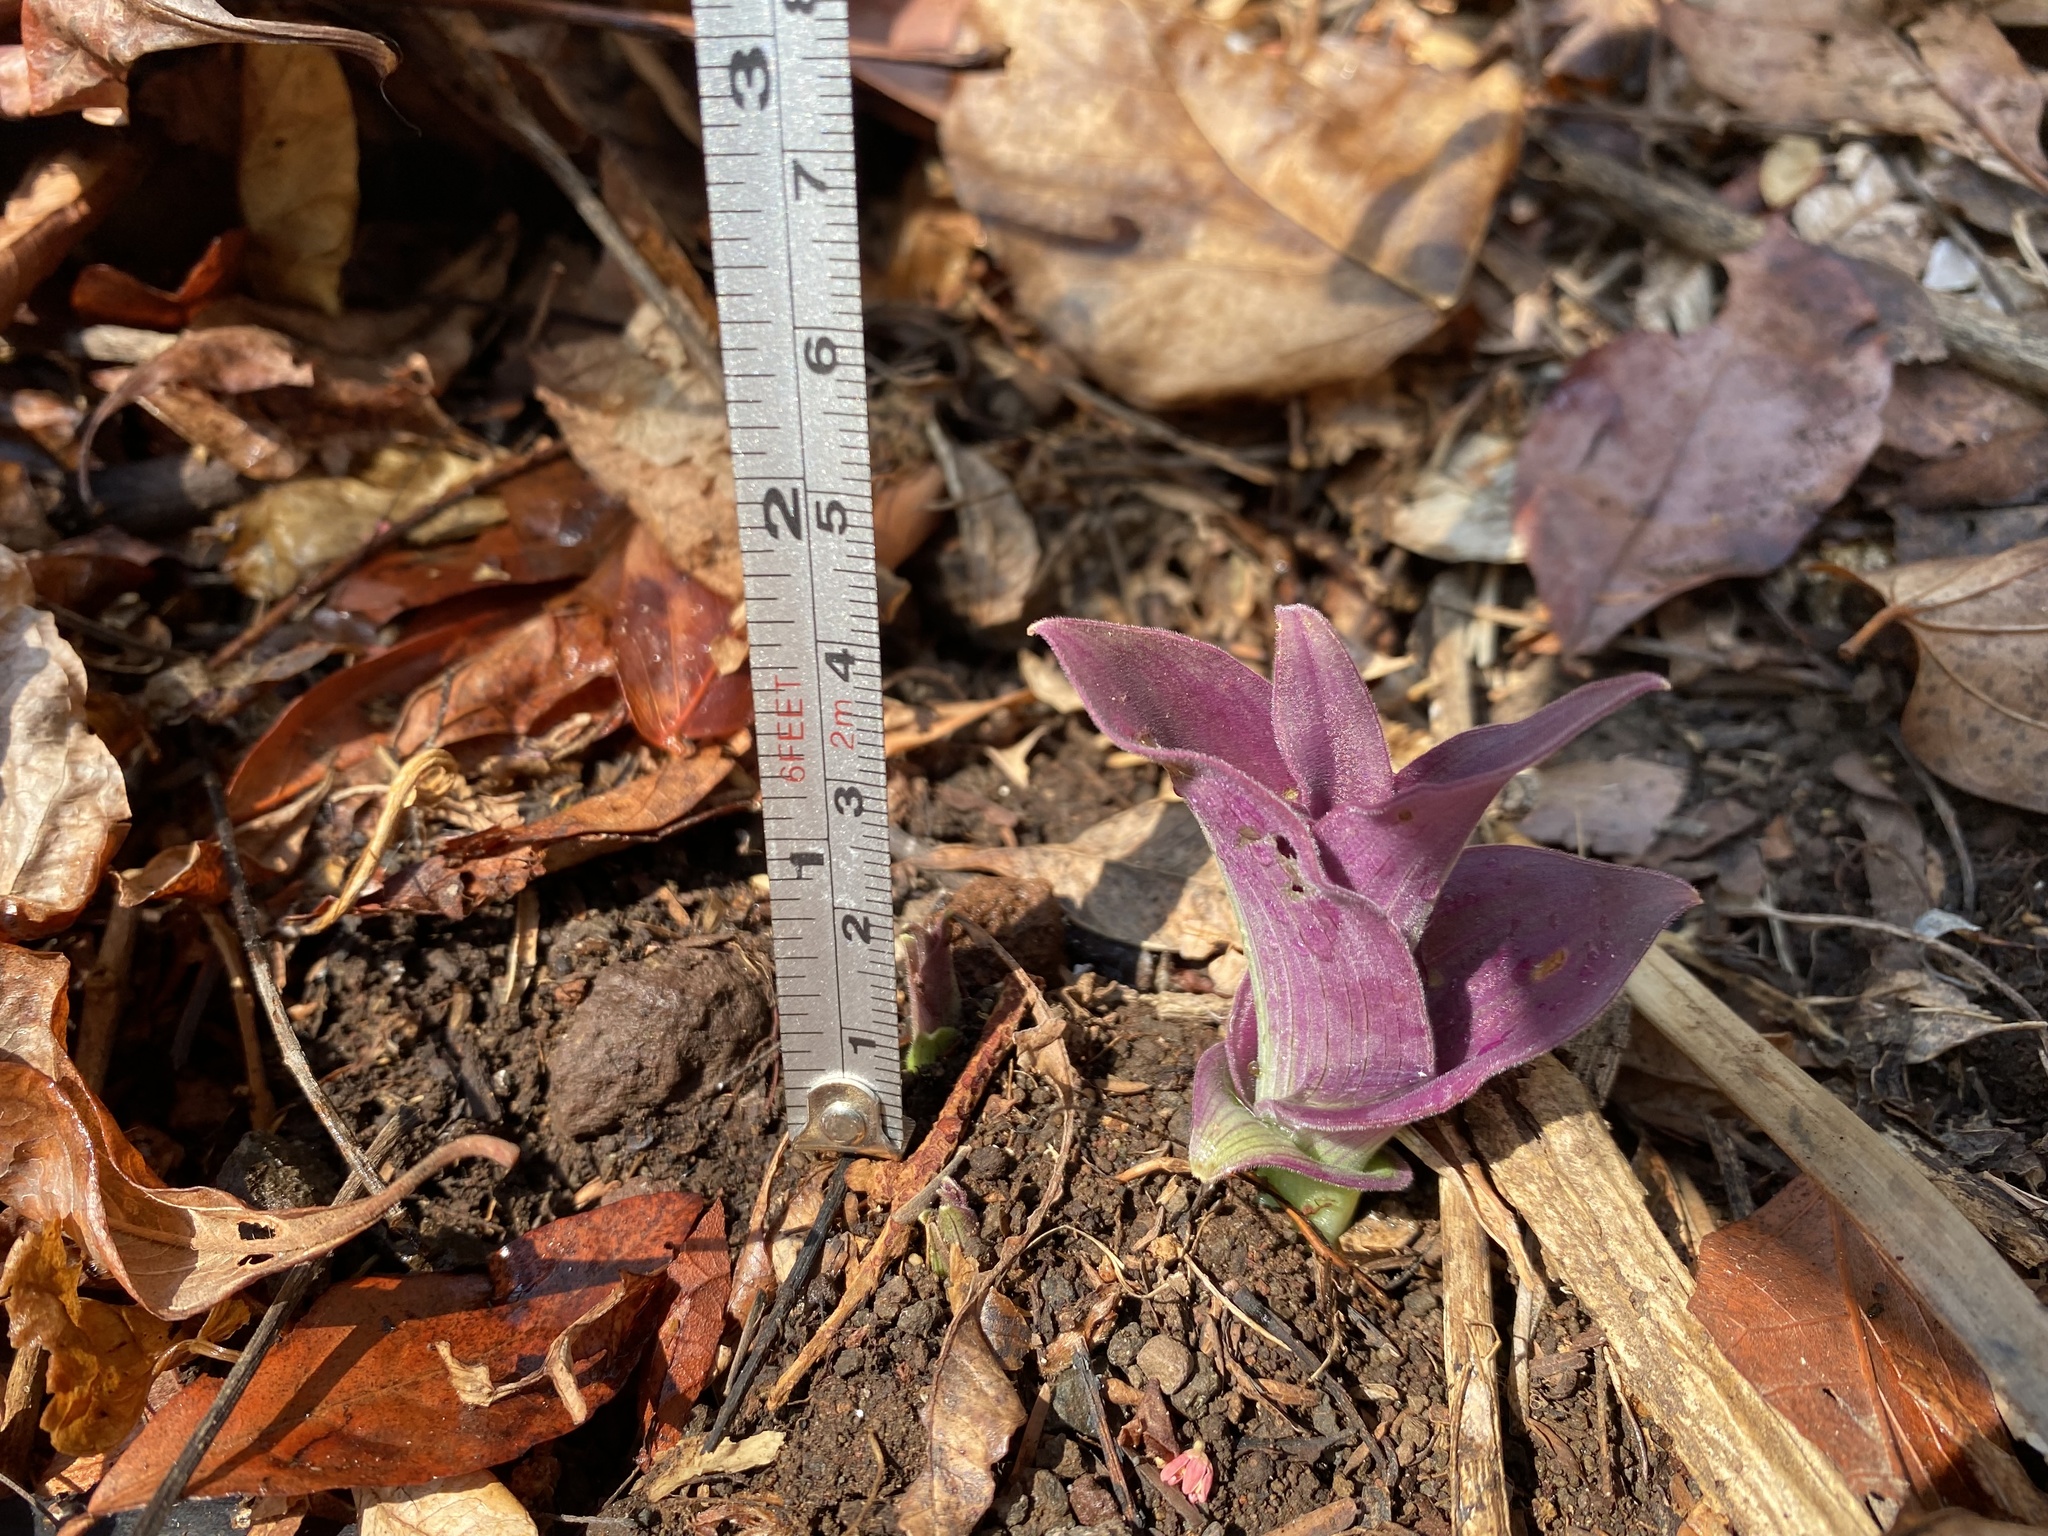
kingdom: Plantae
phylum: Tracheophyta
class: Liliopsida
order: Commelinales
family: Commelinaceae
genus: Tradescantia
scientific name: Tradescantia pallida
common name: Purpleheart
